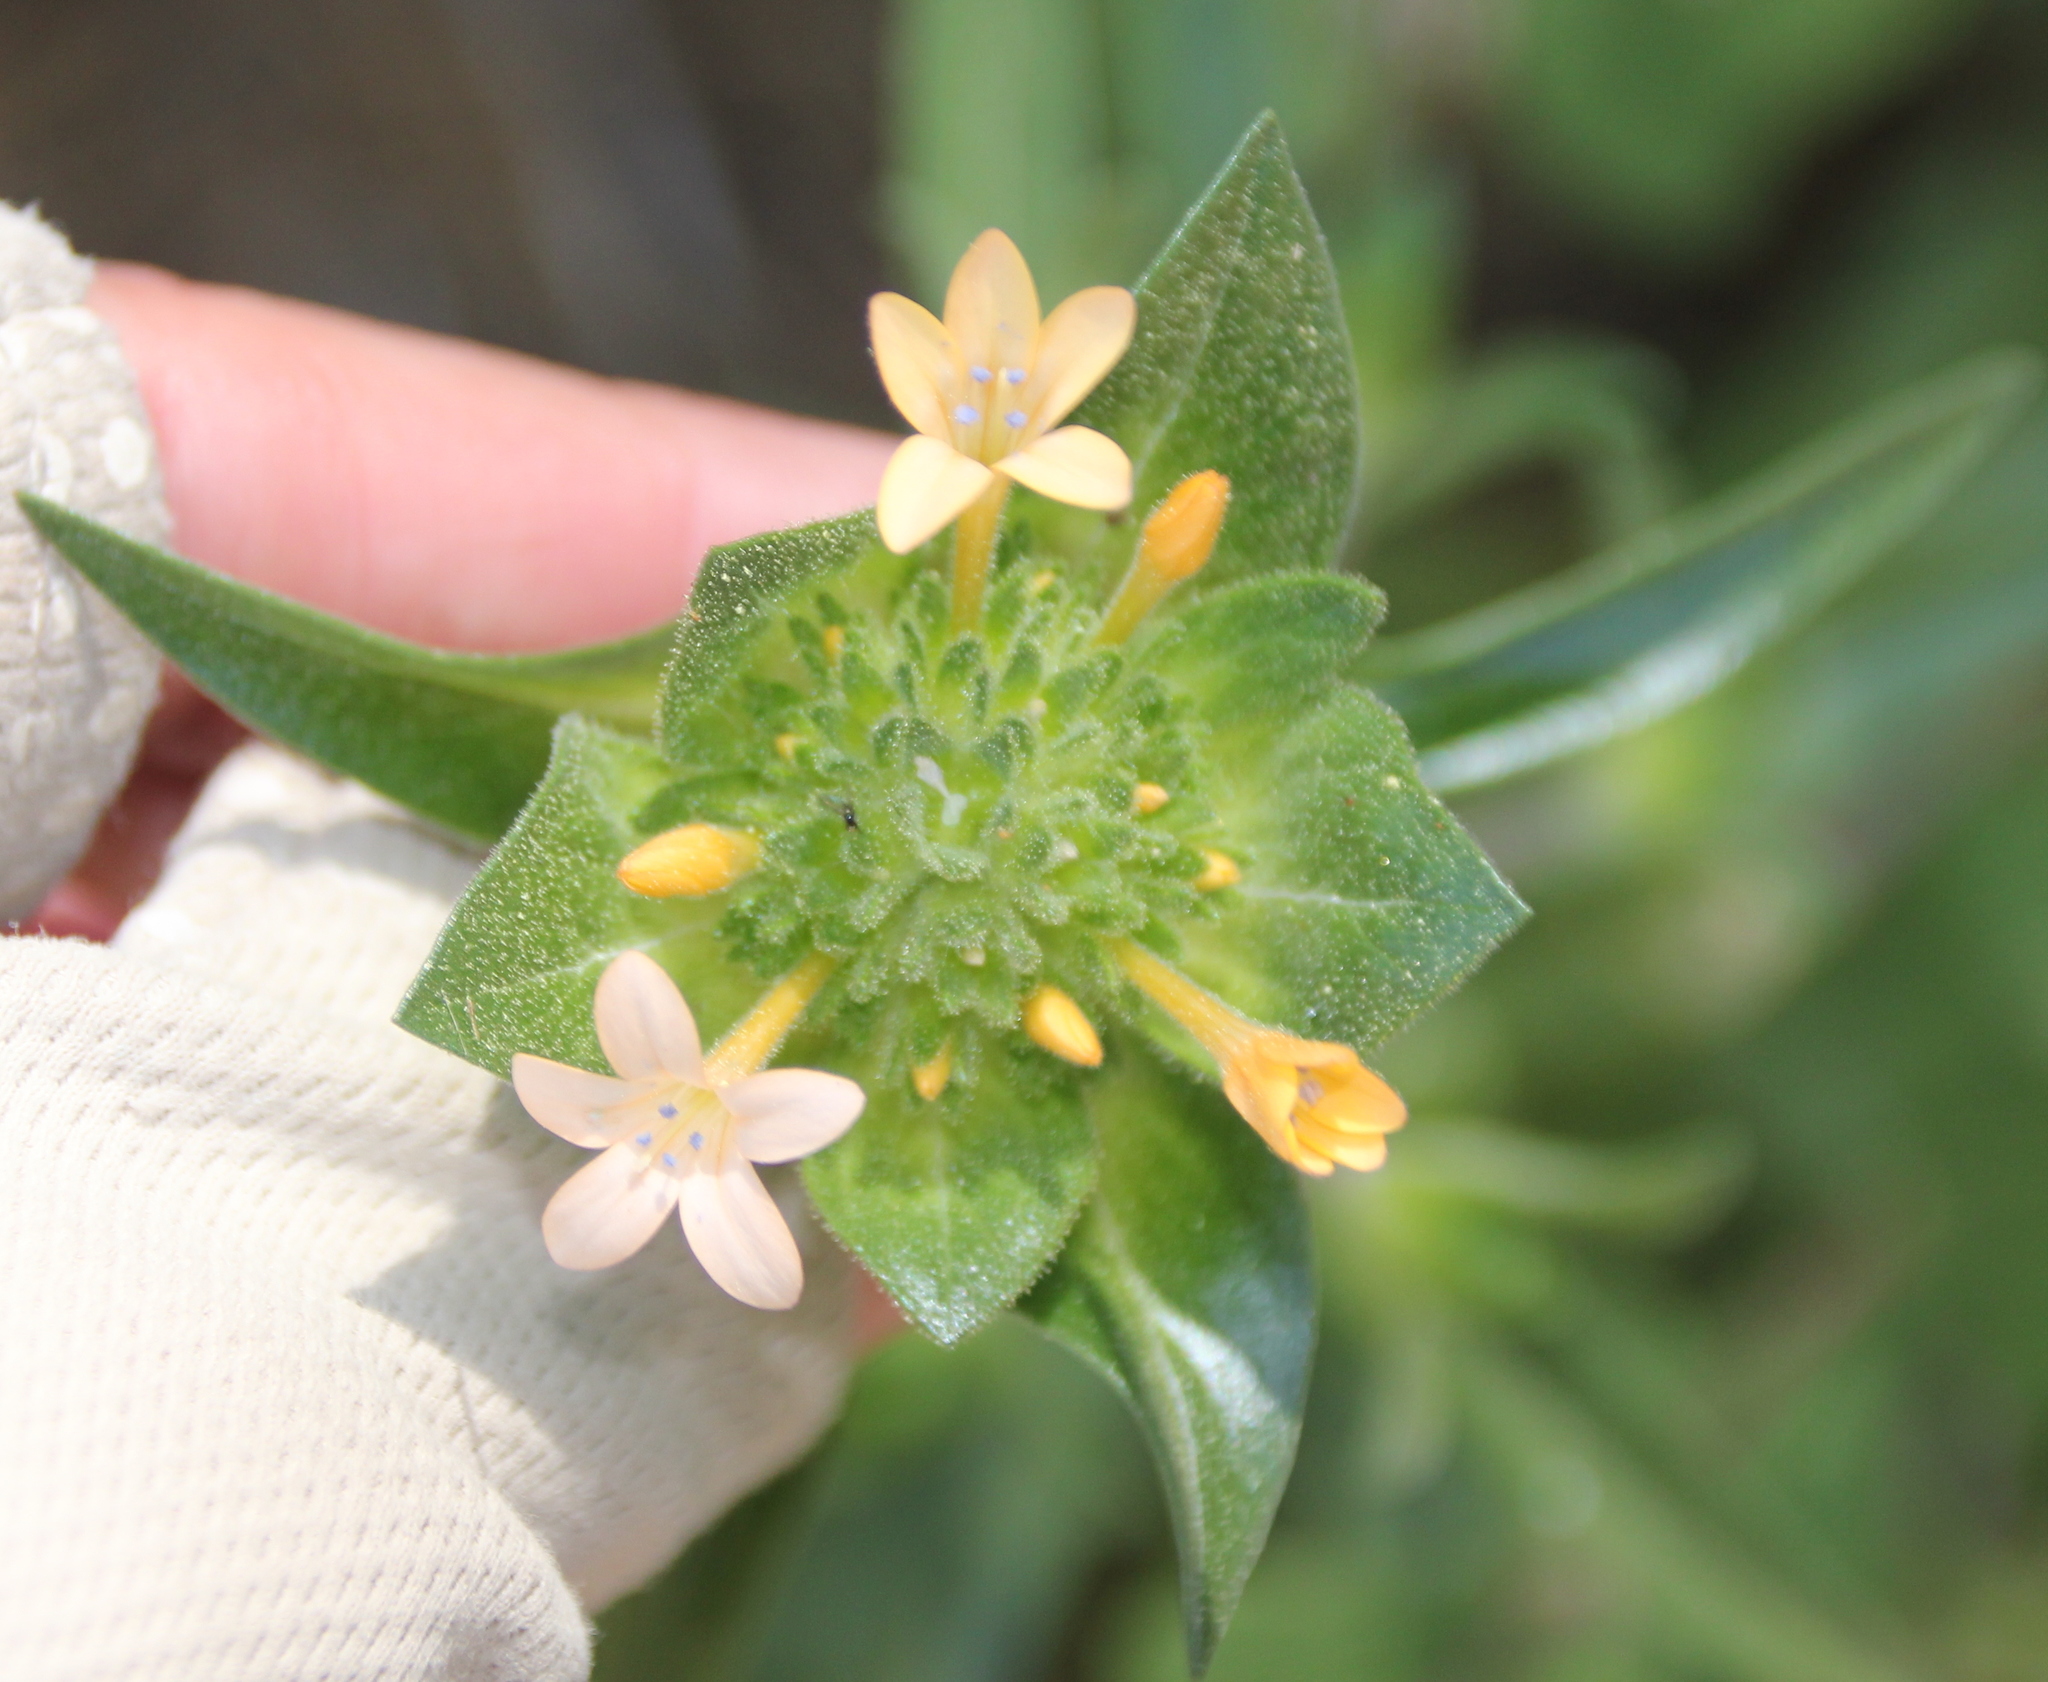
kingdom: Plantae
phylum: Tracheophyta
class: Magnoliopsida
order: Ericales
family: Polemoniaceae
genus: Collomia
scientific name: Collomia grandiflora
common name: California strawflower
